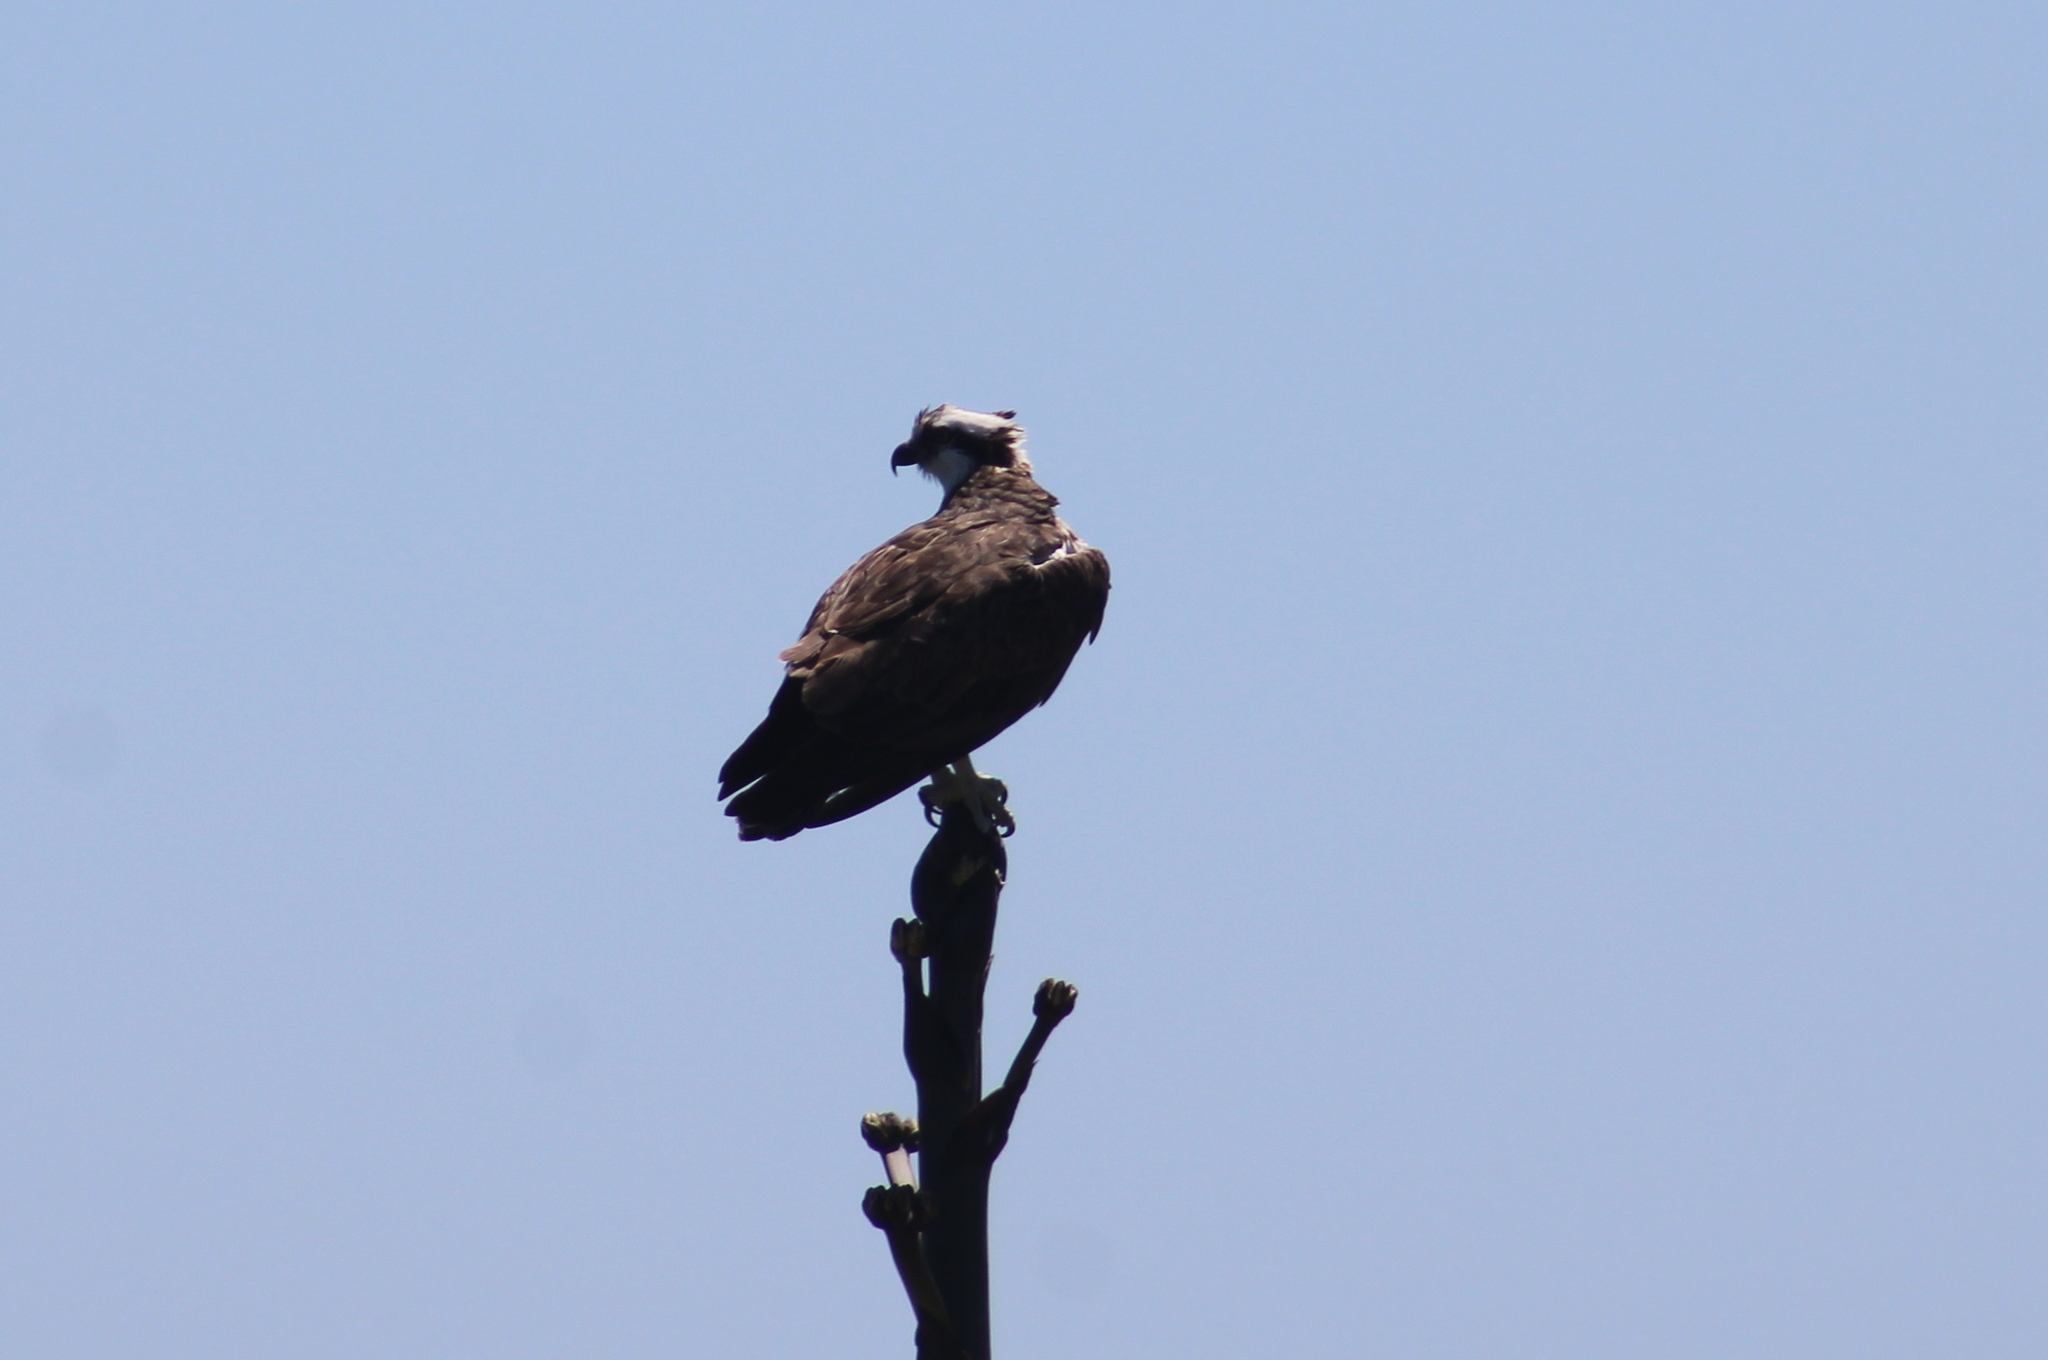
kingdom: Animalia
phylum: Chordata
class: Aves
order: Accipitriformes
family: Pandionidae
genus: Pandion
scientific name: Pandion haliaetus
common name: Osprey
